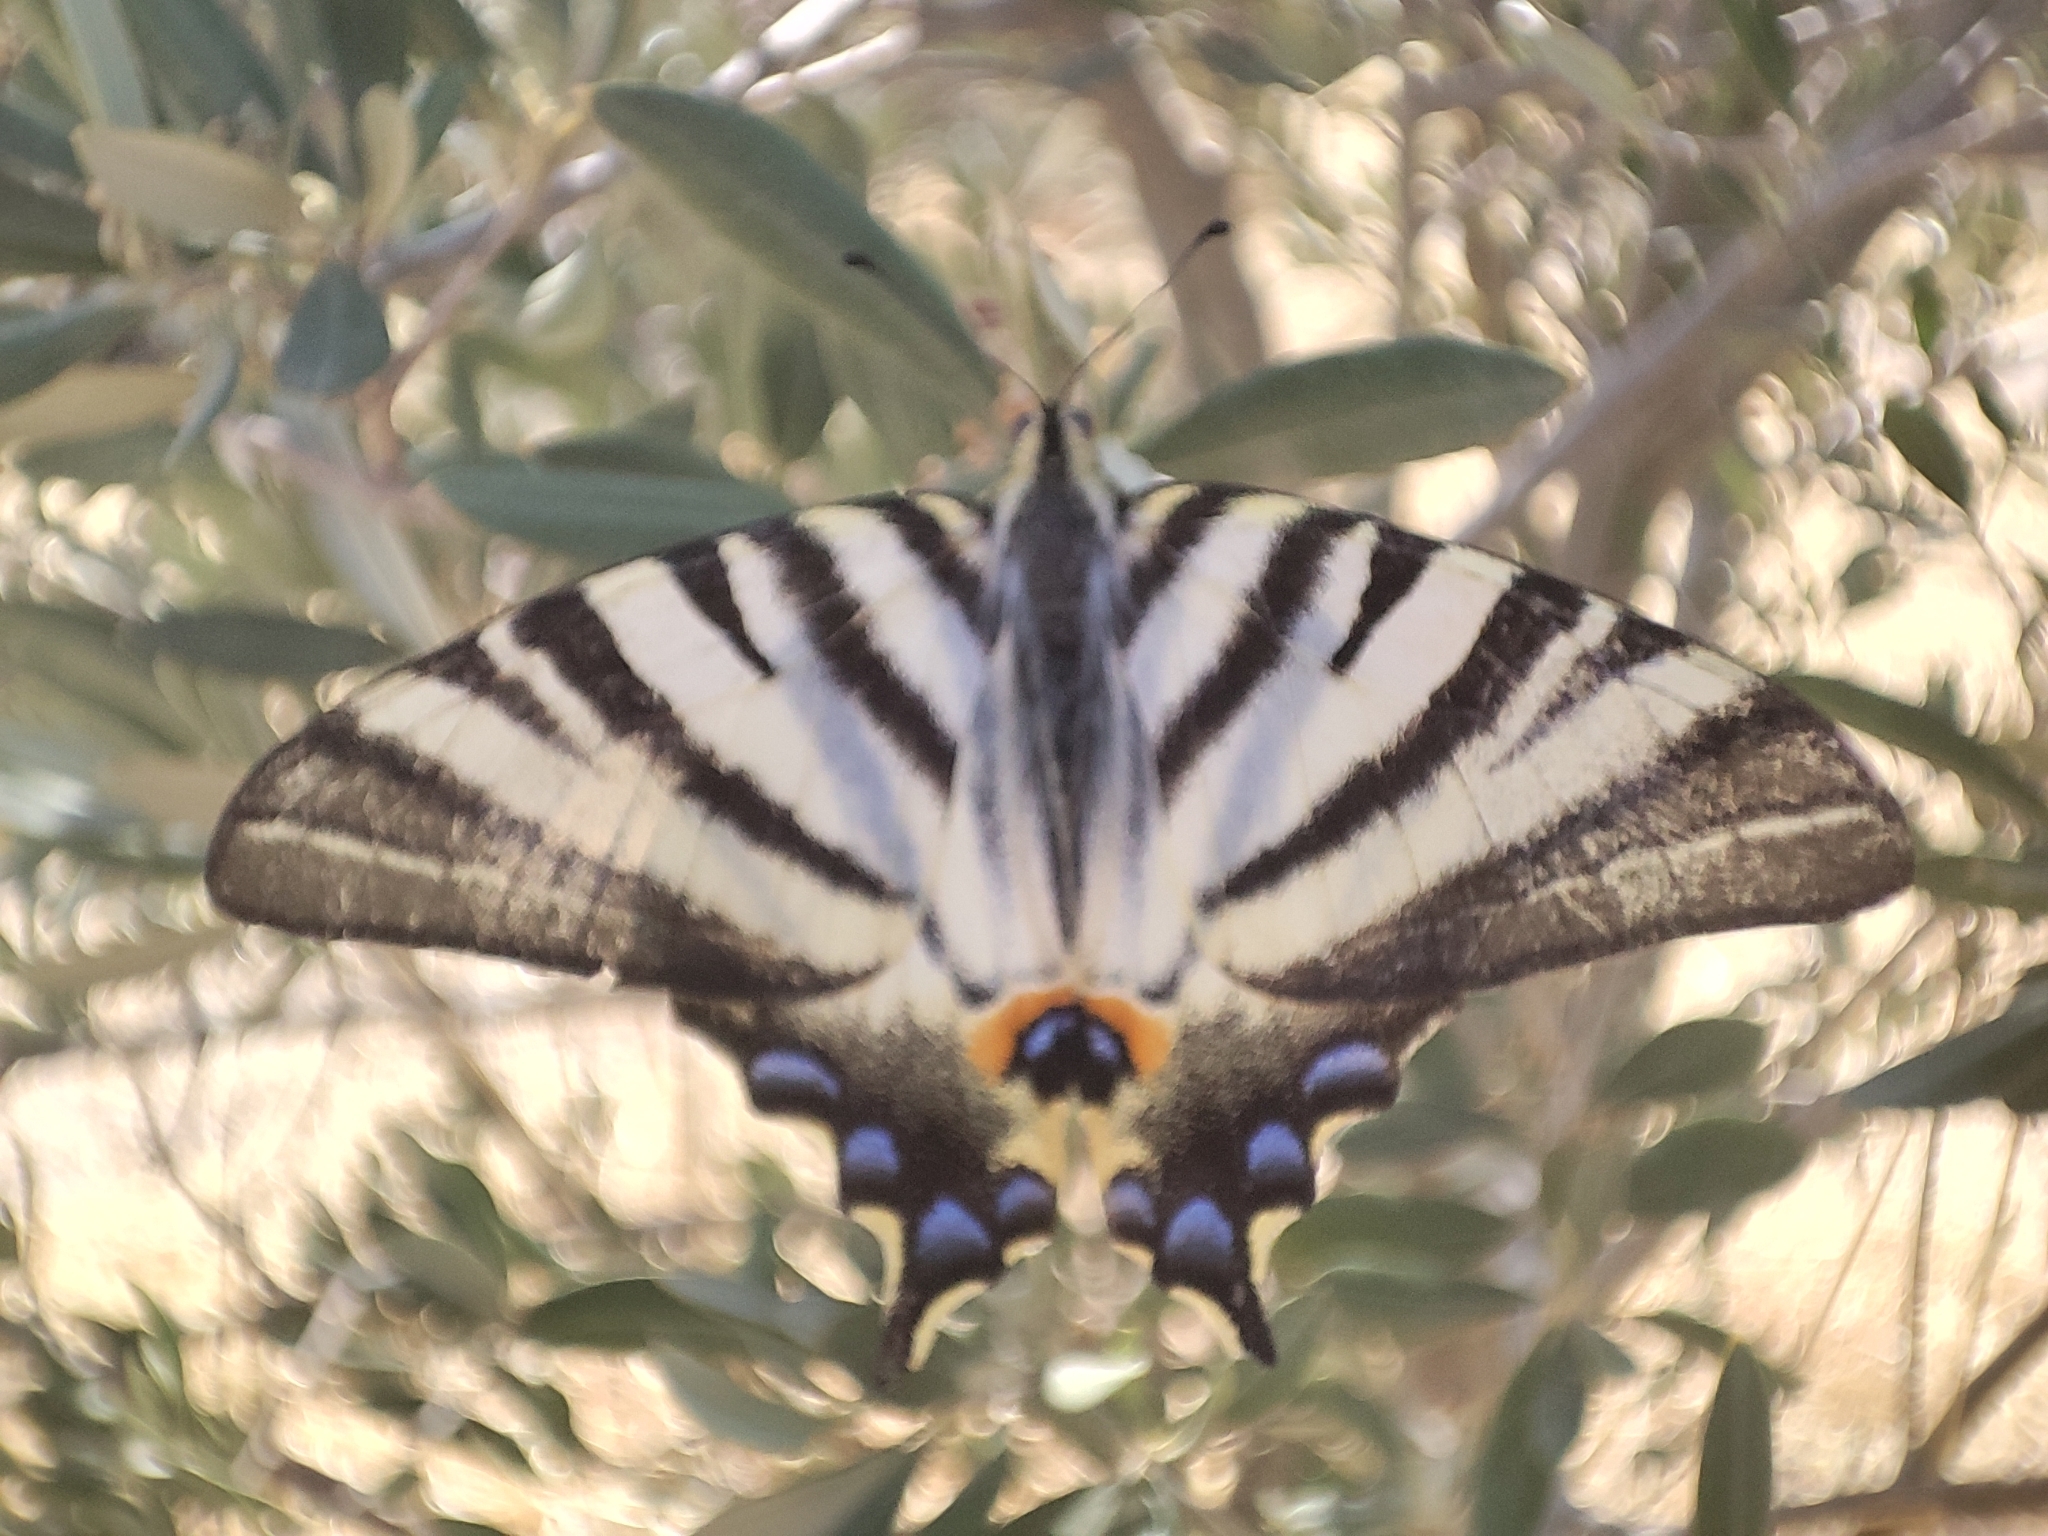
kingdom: Animalia
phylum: Arthropoda
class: Insecta
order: Lepidoptera
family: Papilionidae
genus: Iphiclides
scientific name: Iphiclides podalirius
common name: Scarce swallowtail
